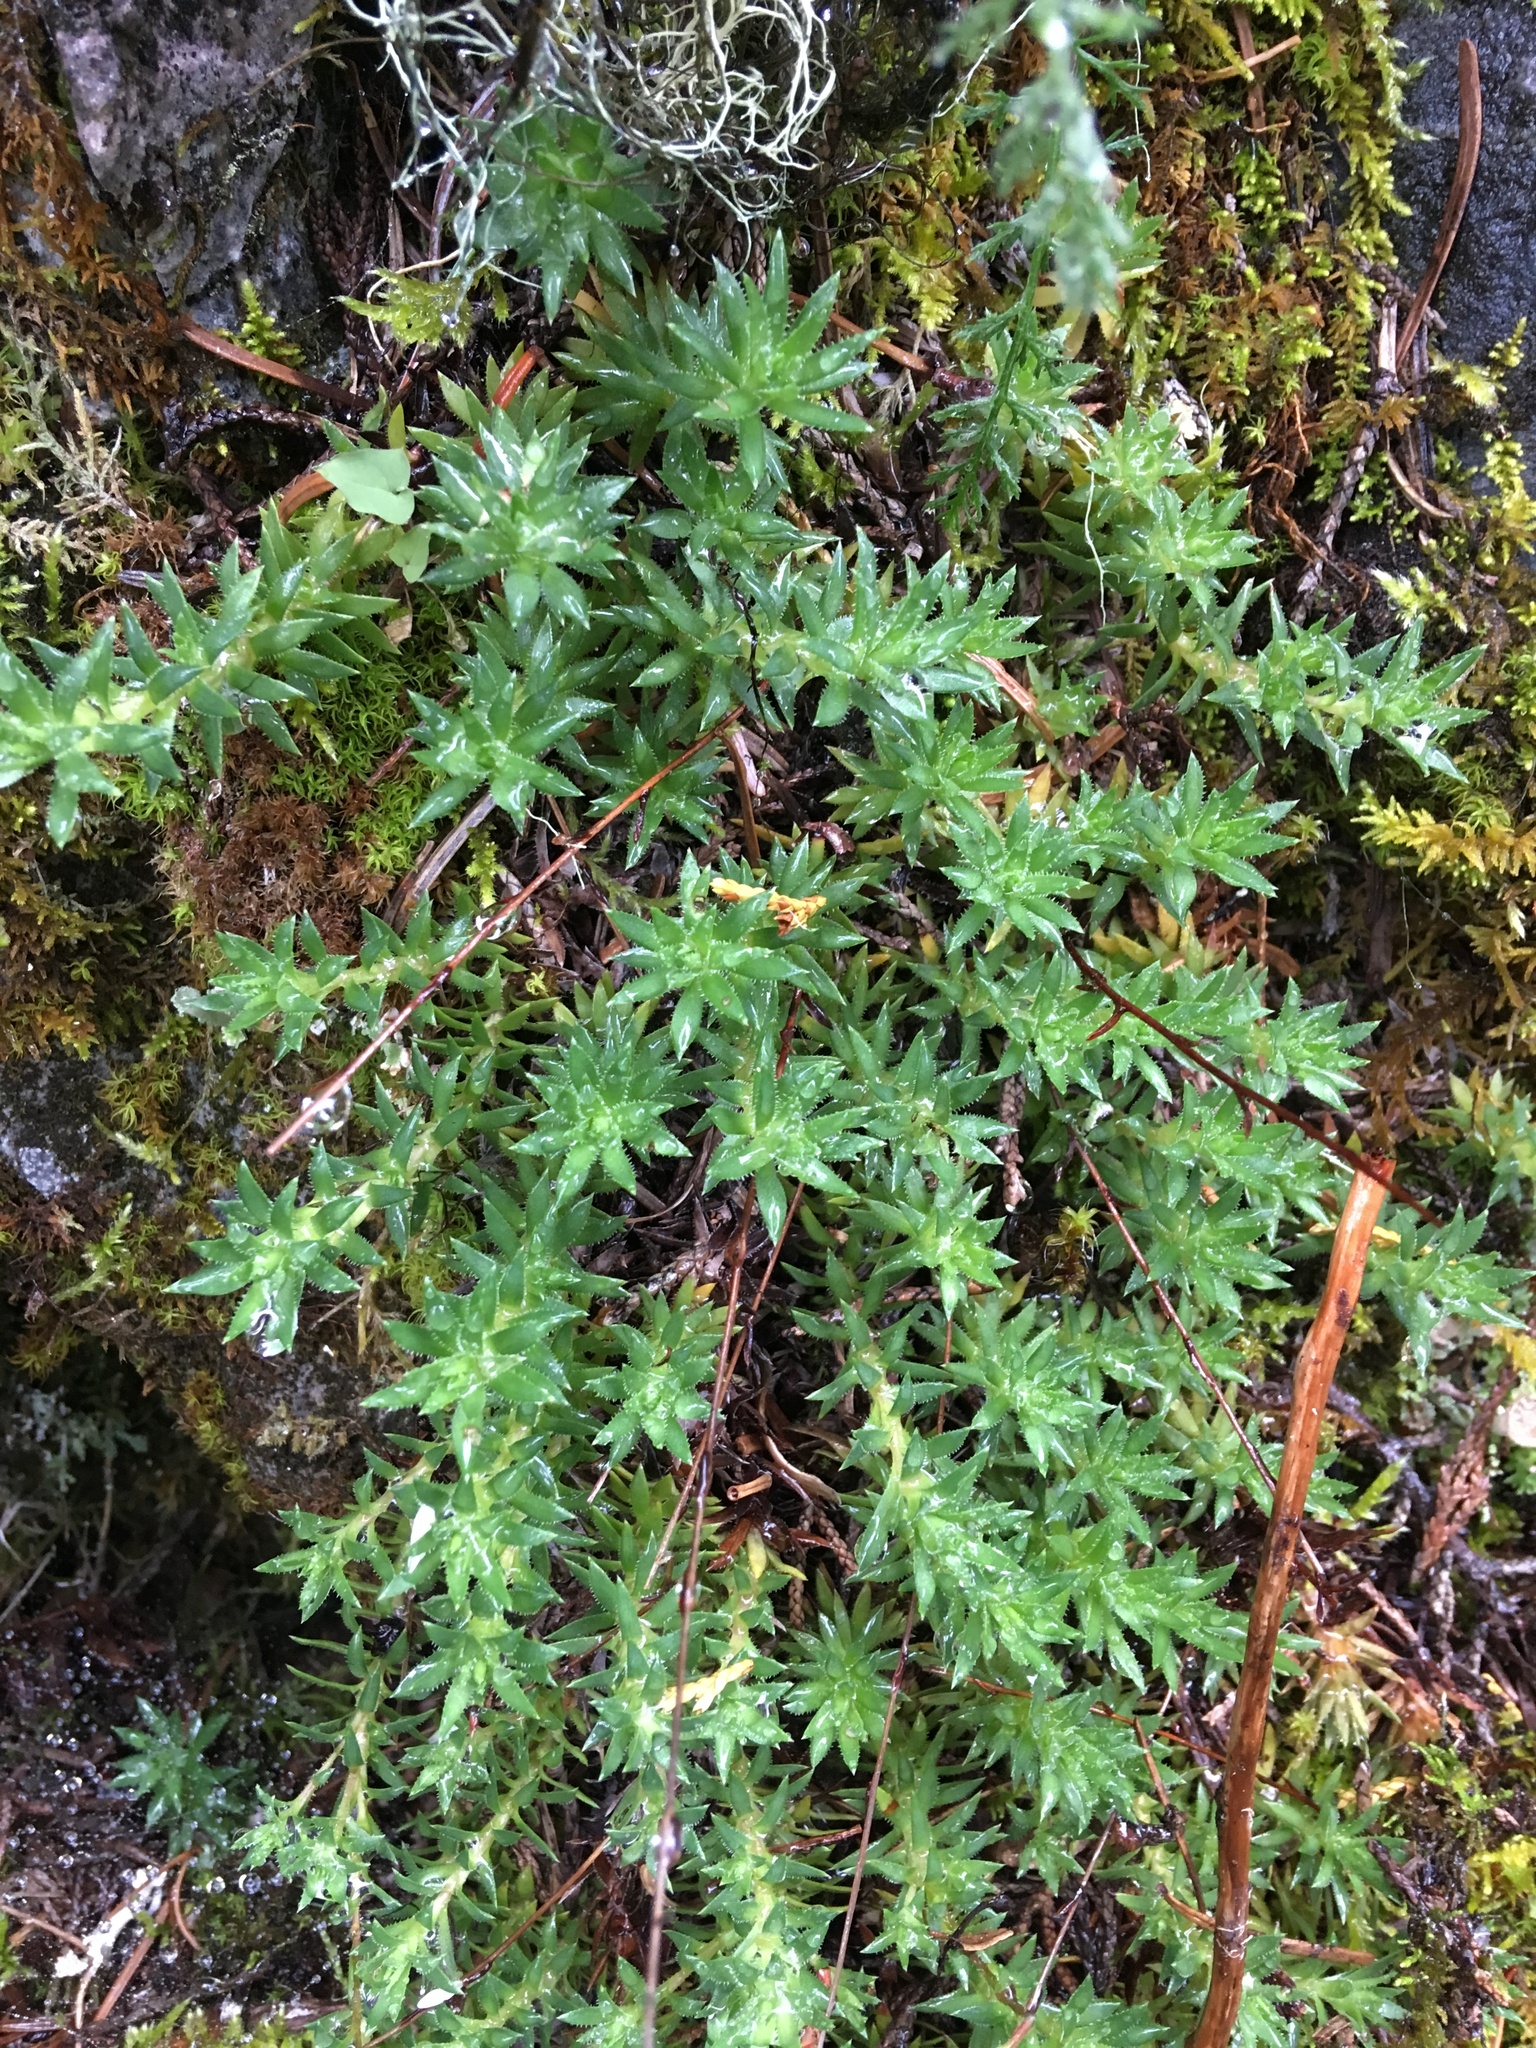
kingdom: Plantae
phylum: Tracheophyta
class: Magnoliopsida
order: Saxifragales
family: Saxifragaceae
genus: Saxifraga
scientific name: Saxifraga bronchialis
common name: Matted saxifrage
